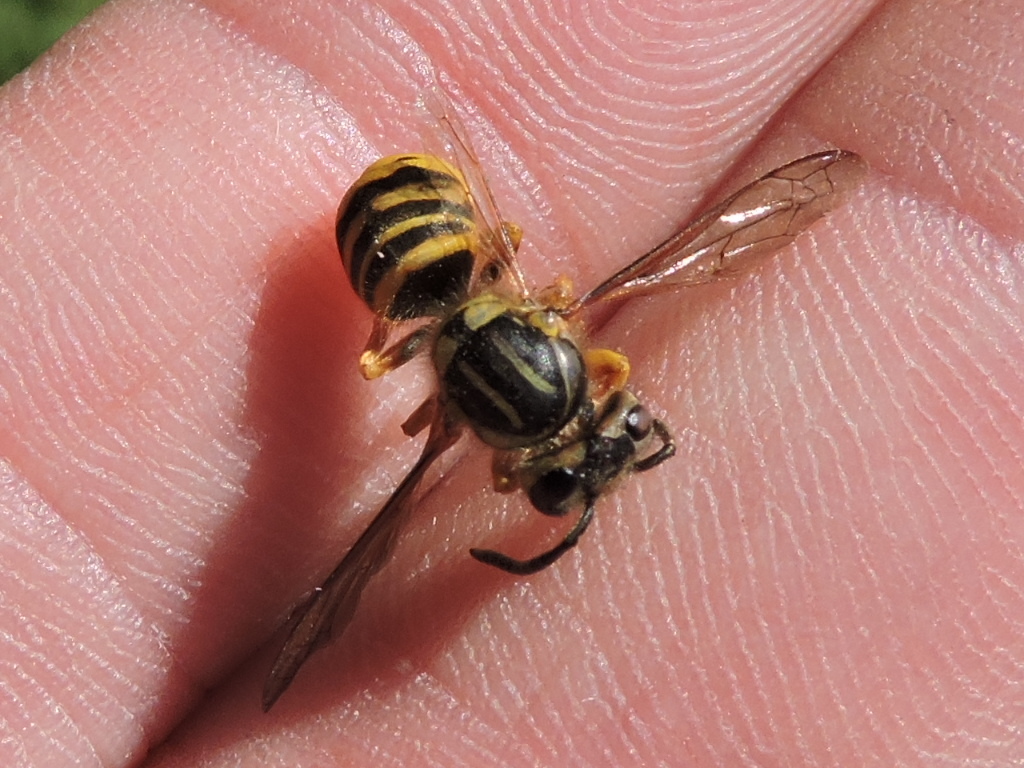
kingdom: Animalia
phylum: Arthropoda
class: Insecta
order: Hymenoptera
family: Vespidae
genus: Vespula
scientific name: Vespula squamosa
